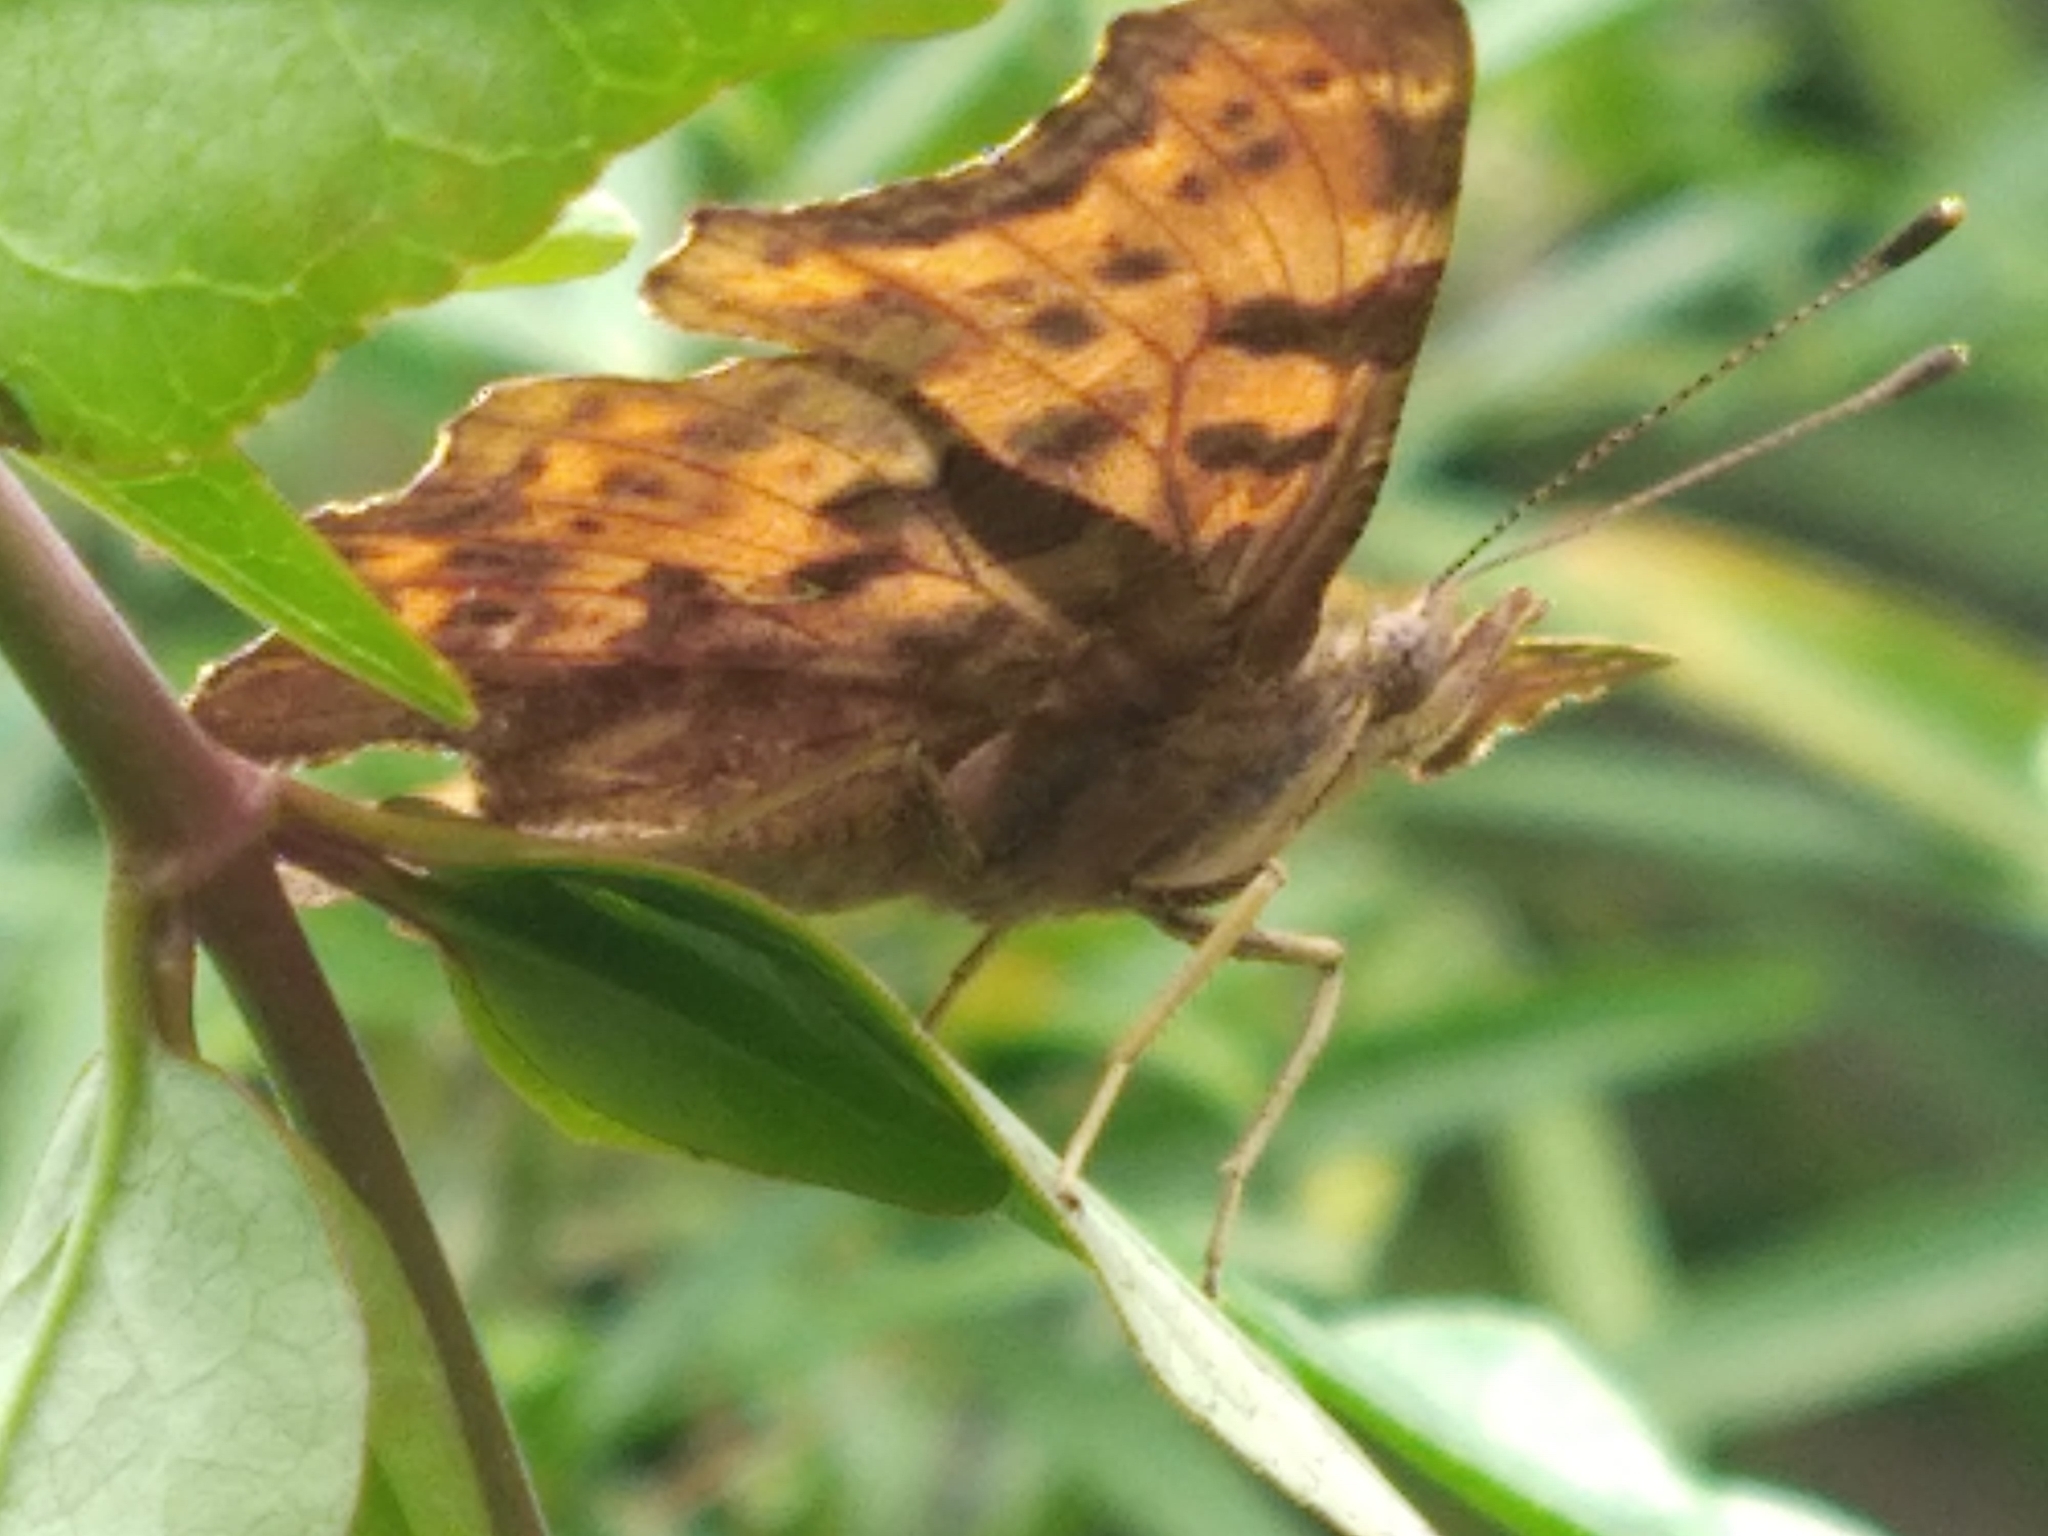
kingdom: Animalia
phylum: Arthropoda
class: Insecta
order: Lepidoptera
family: Nymphalidae
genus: Polygonia
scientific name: Polygonia c-album
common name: Comma
